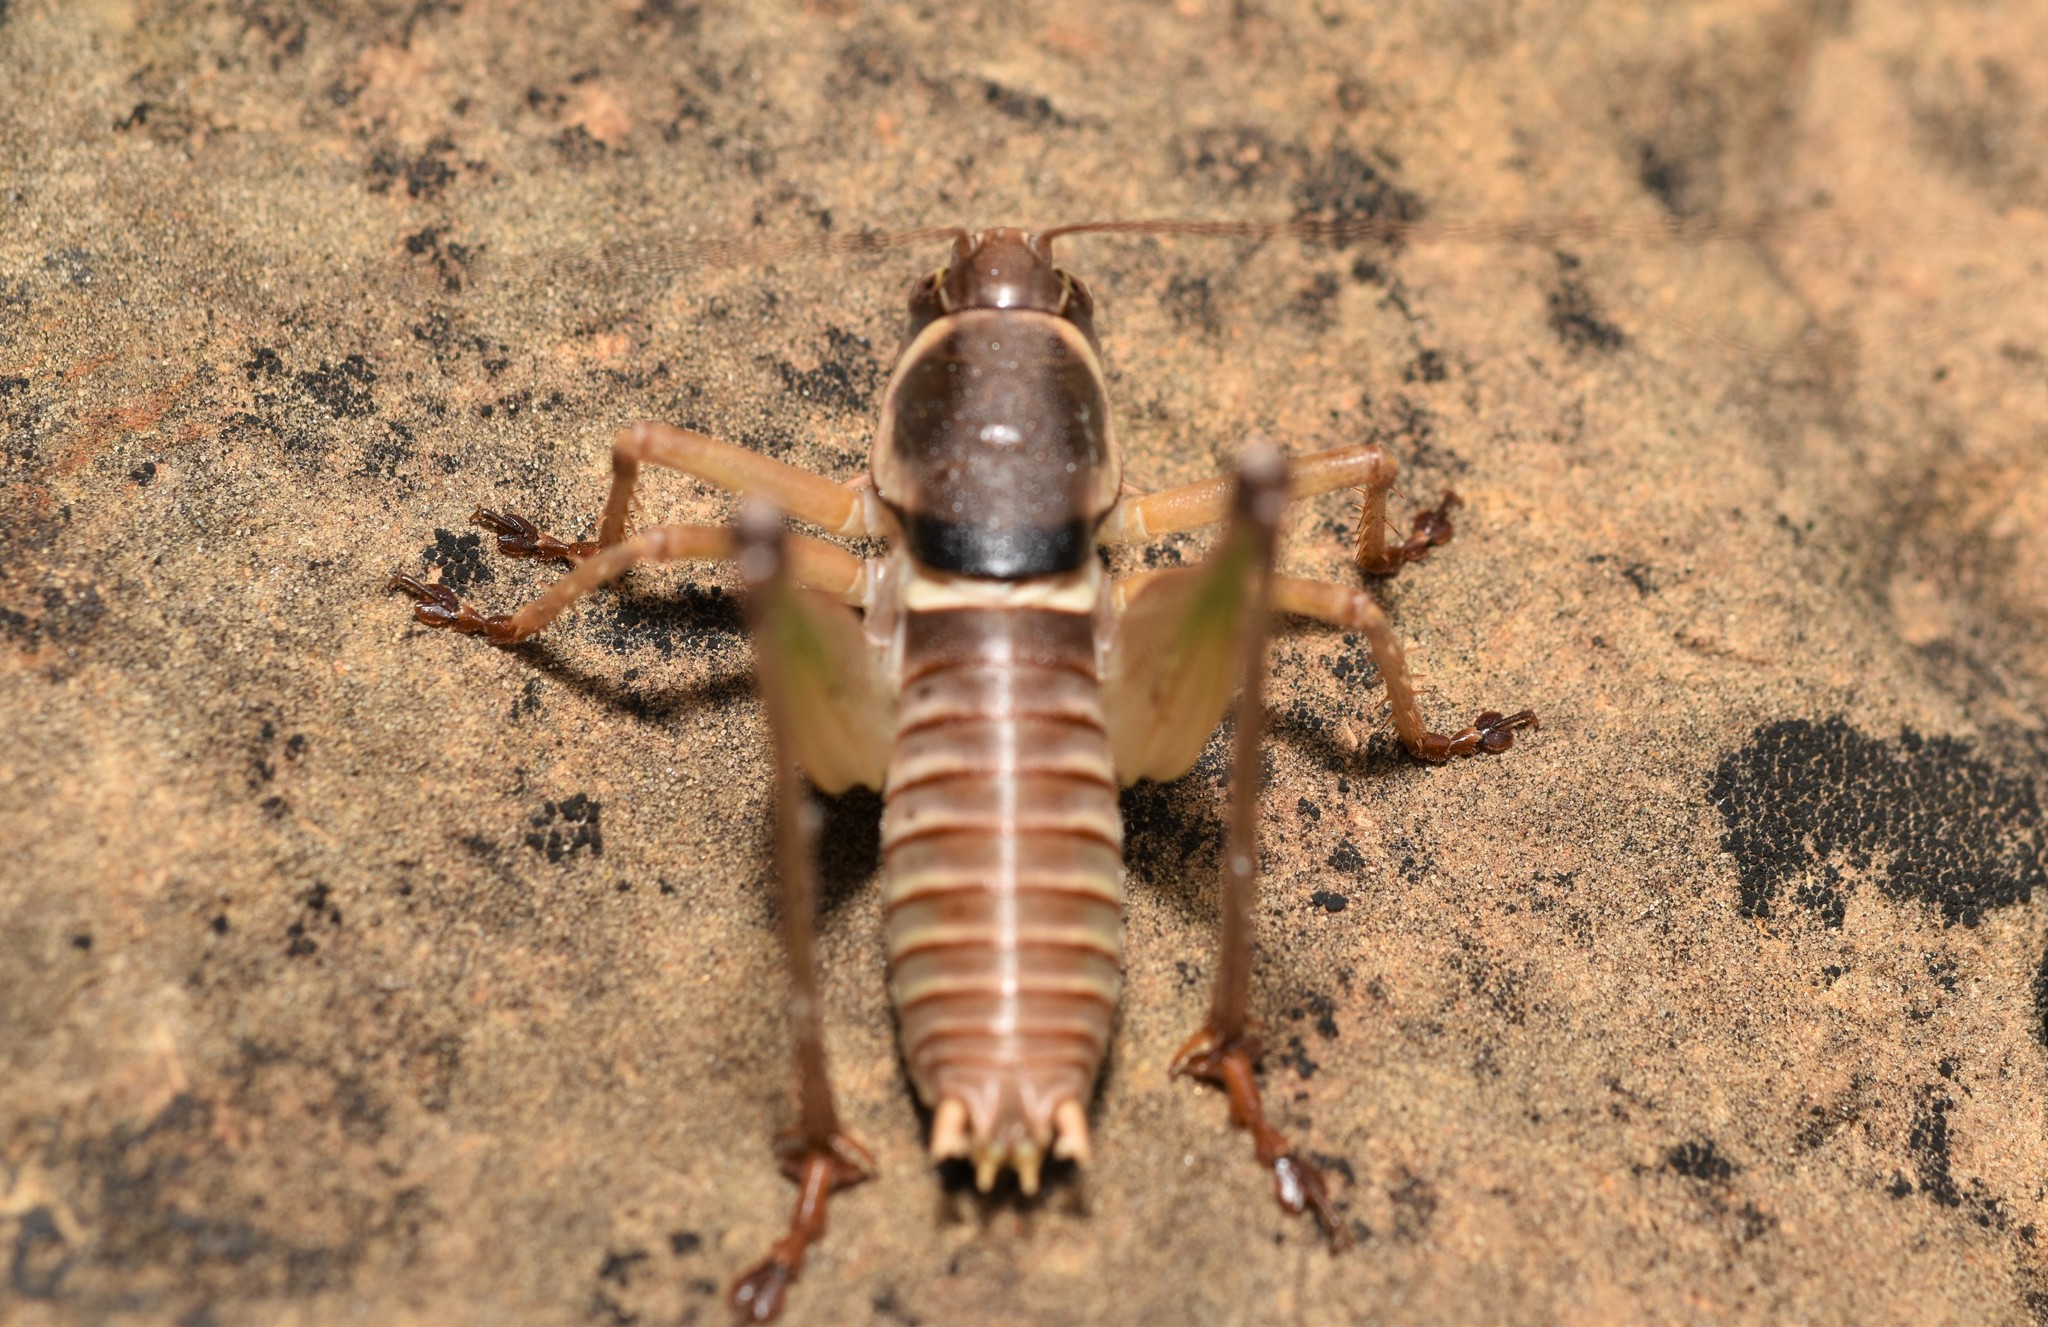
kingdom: Animalia
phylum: Arthropoda
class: Insecta
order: Orthoptera
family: Tettigoniidae
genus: Pediodectes
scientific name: Pediodectes bruneri
